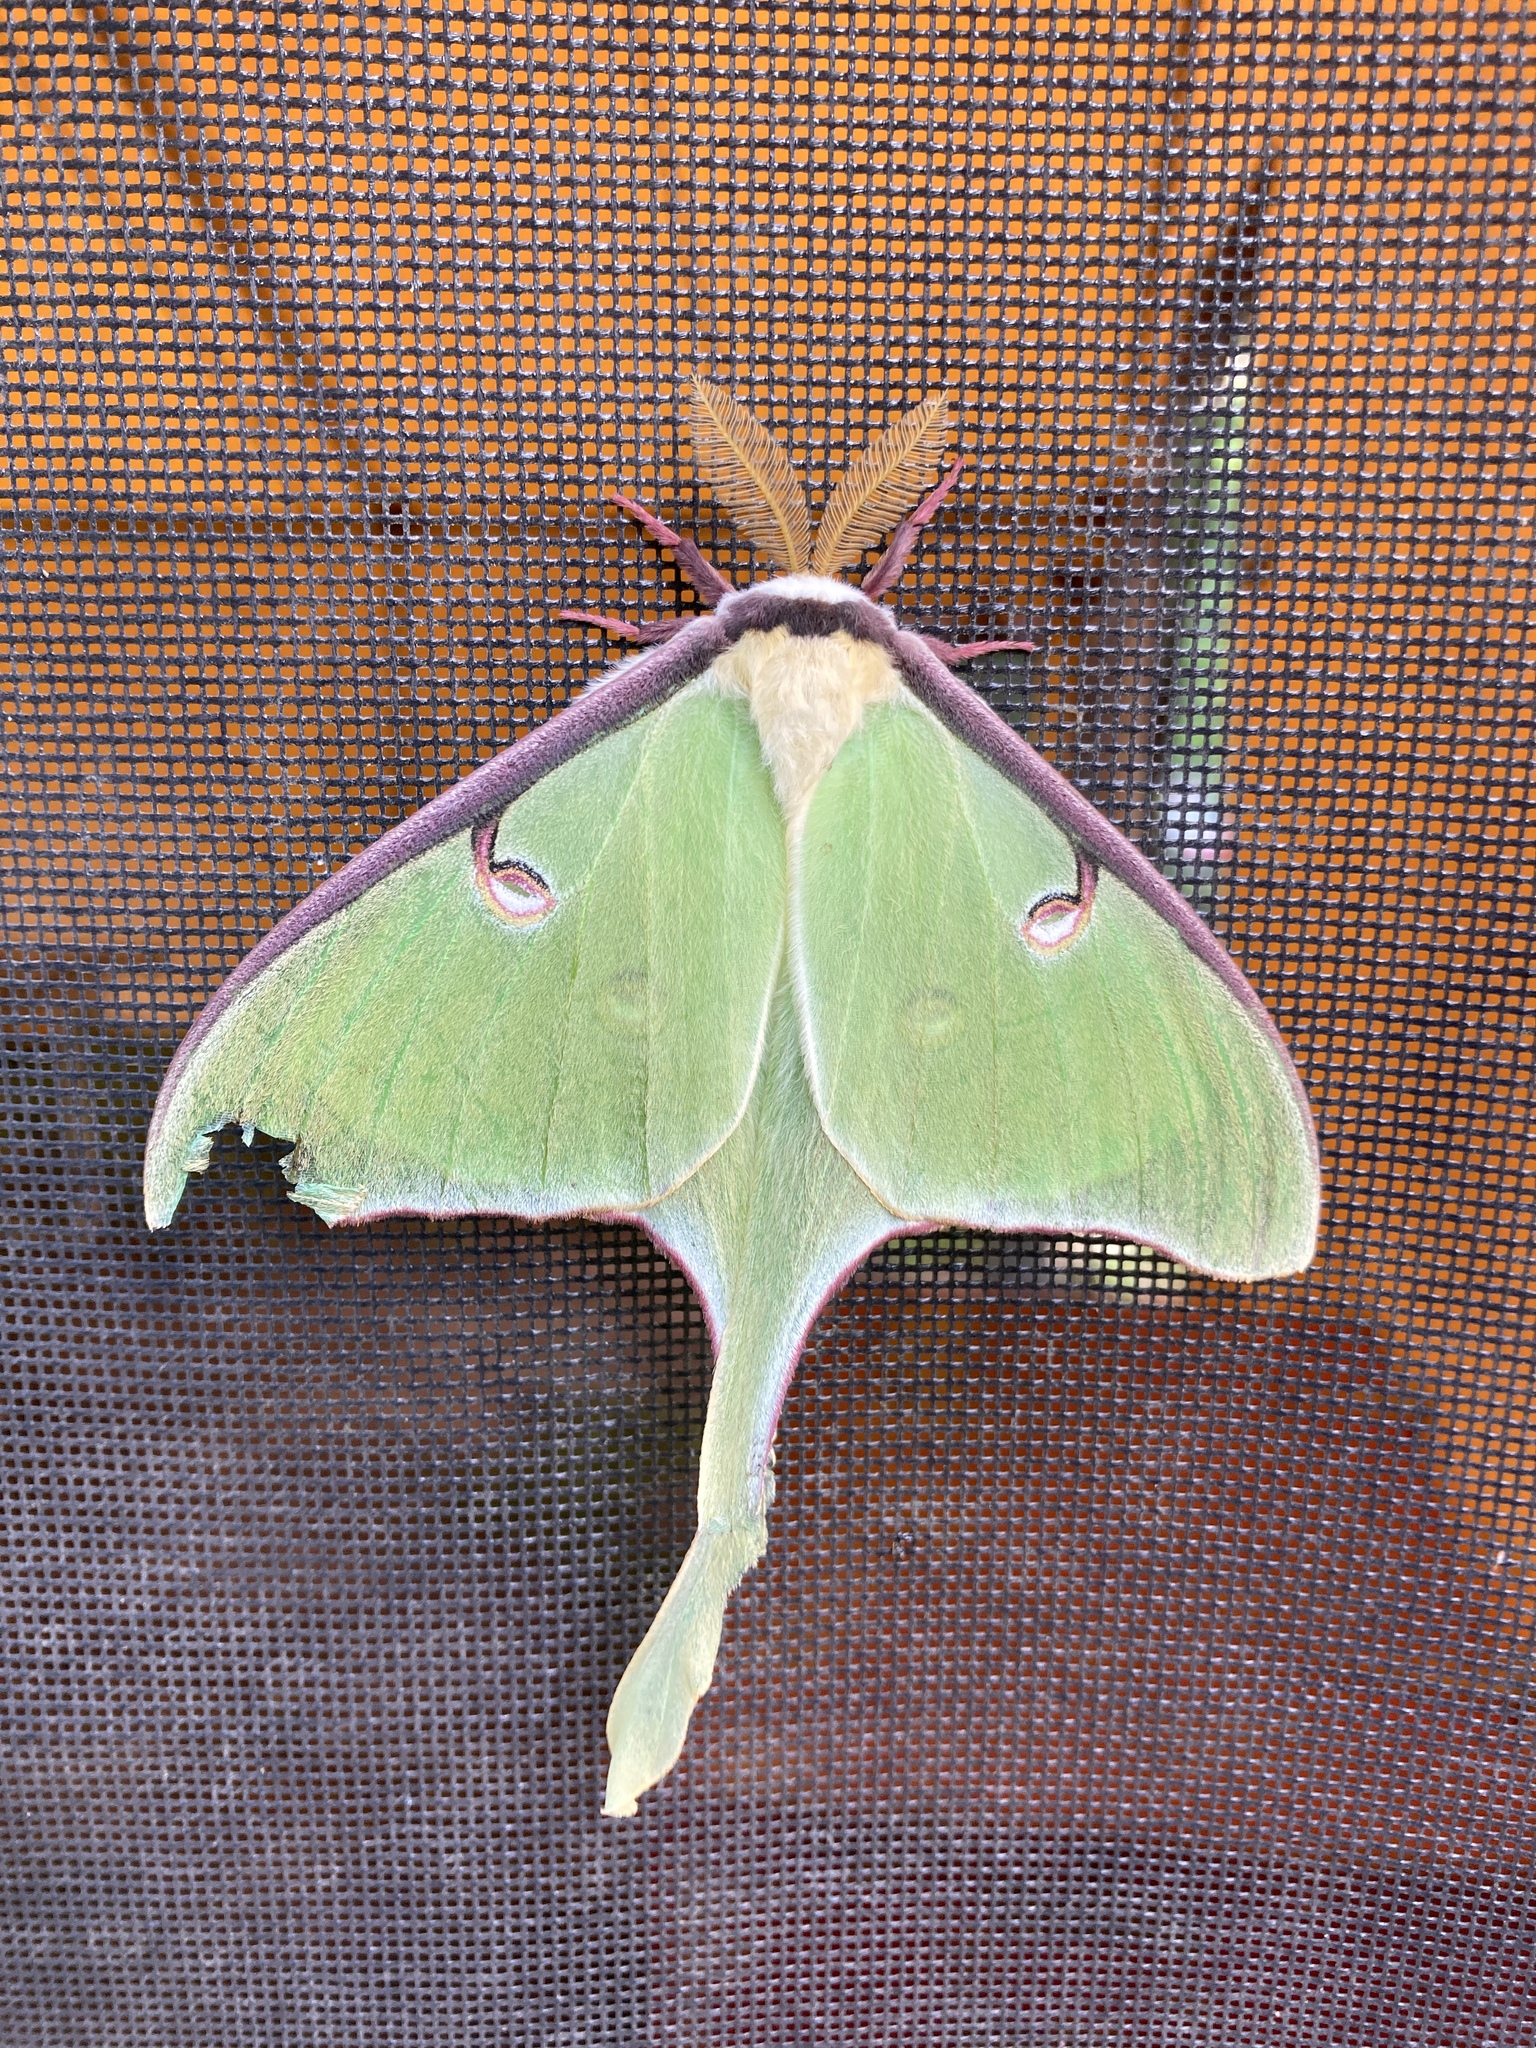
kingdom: Animalia
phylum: Arthropoda
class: Insecta
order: Lepidoptera
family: Saturniidae
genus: Actias
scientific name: Actias luna
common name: Luna moth
